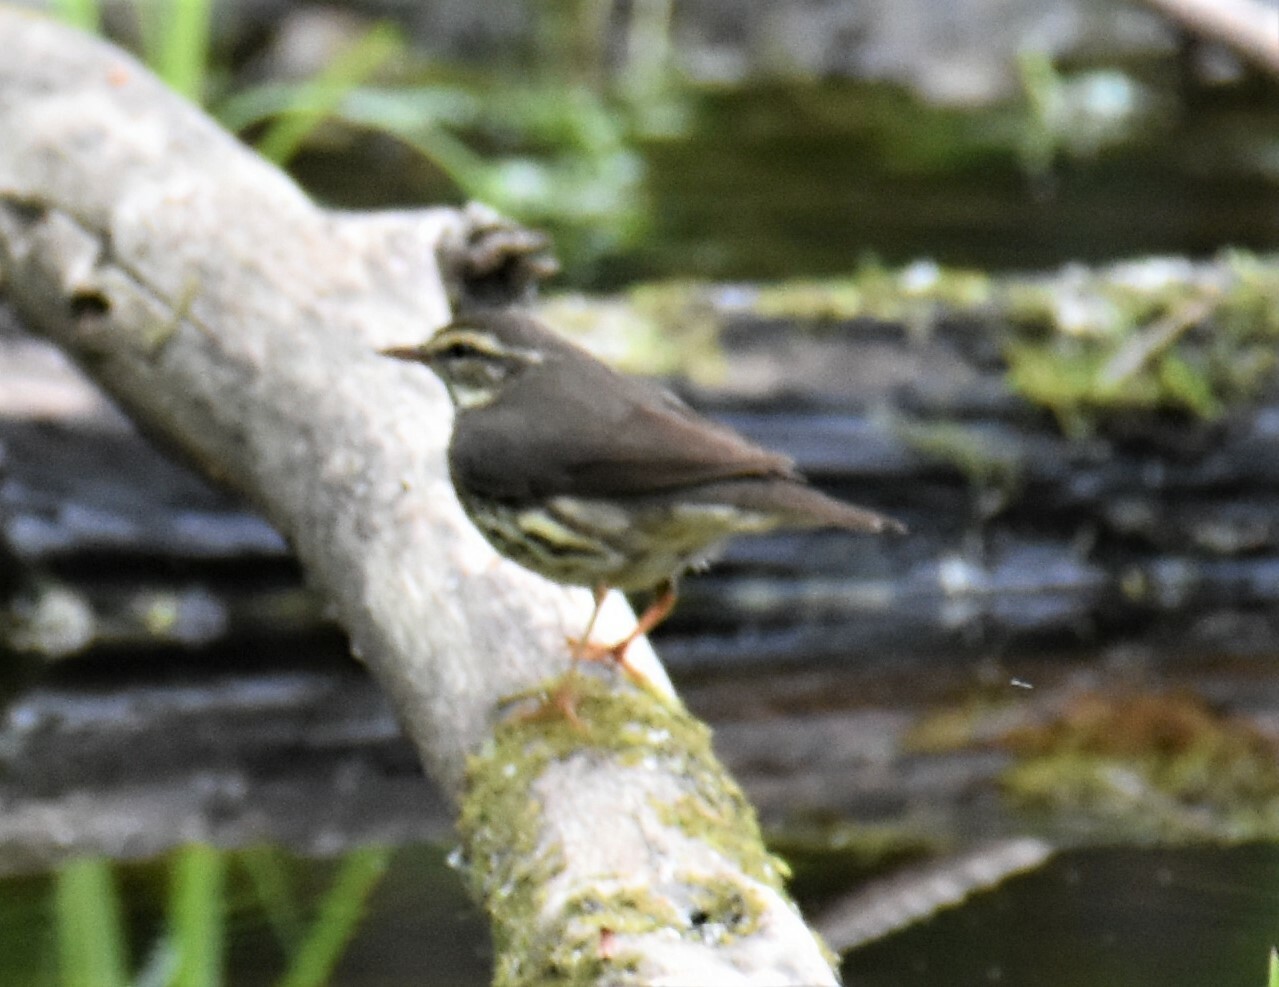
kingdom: Animalia
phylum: Chordata
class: Aves
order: Passeriformes
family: Parulidae
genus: Parkesia
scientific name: Parkesia noveboracensis
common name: Northern waterthrush
